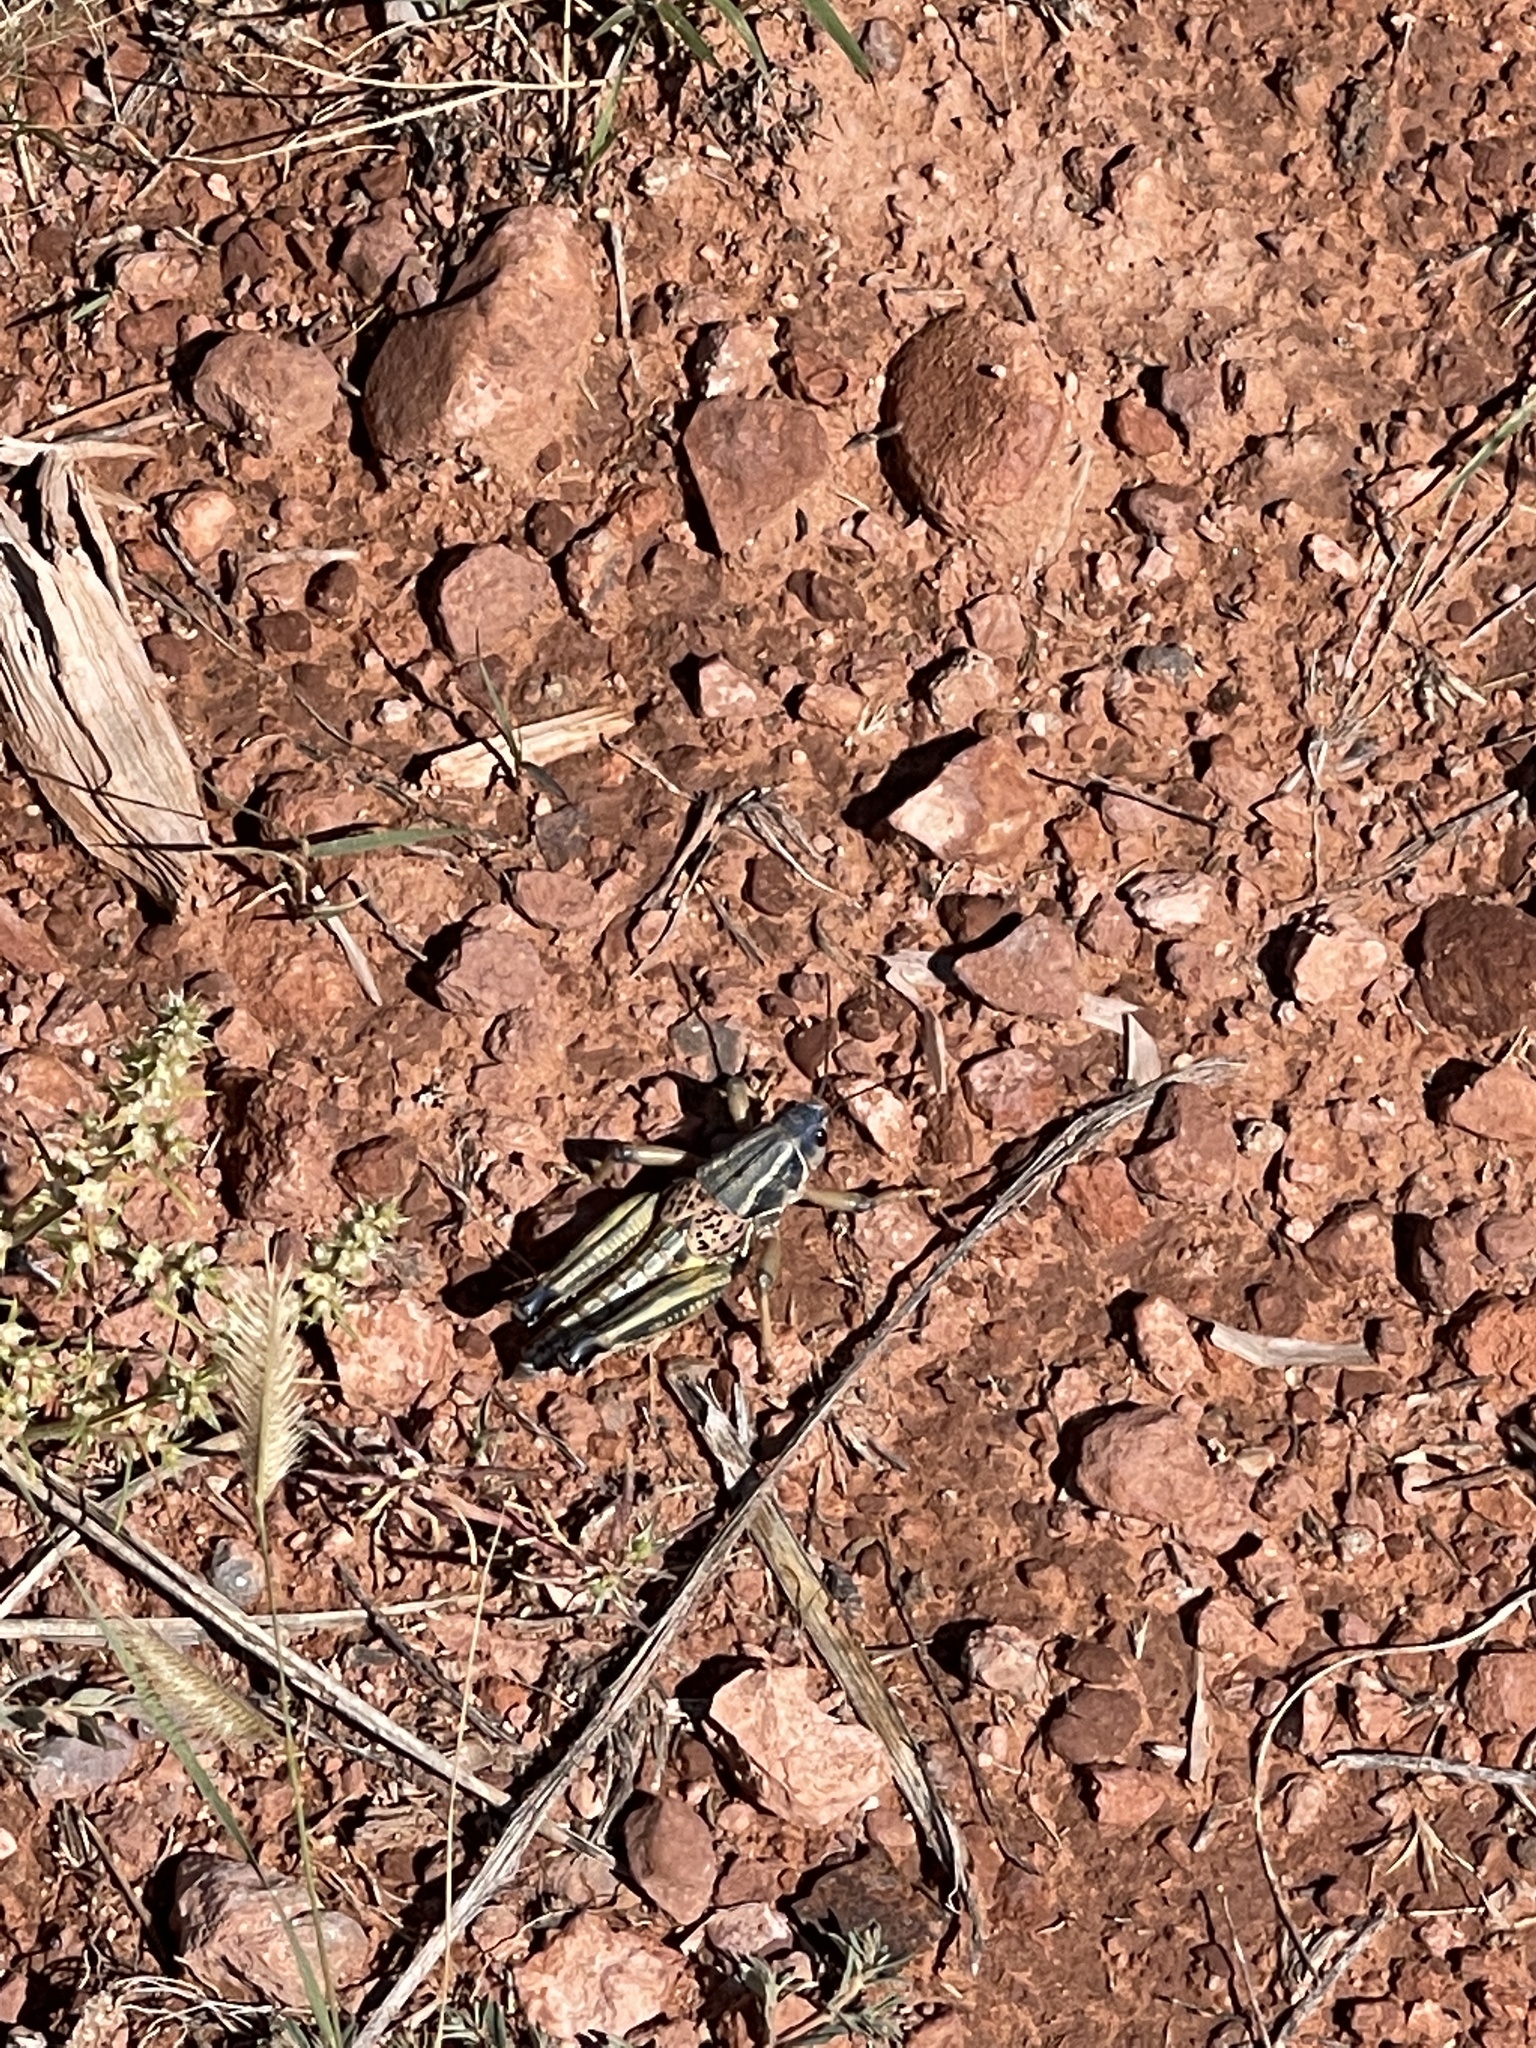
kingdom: Animalia
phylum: Arthropoda
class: Insecta
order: Orthoptera
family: Romaleidae
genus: Brachystola
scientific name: Brachystola magna
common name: Plains lubber grasshopper
